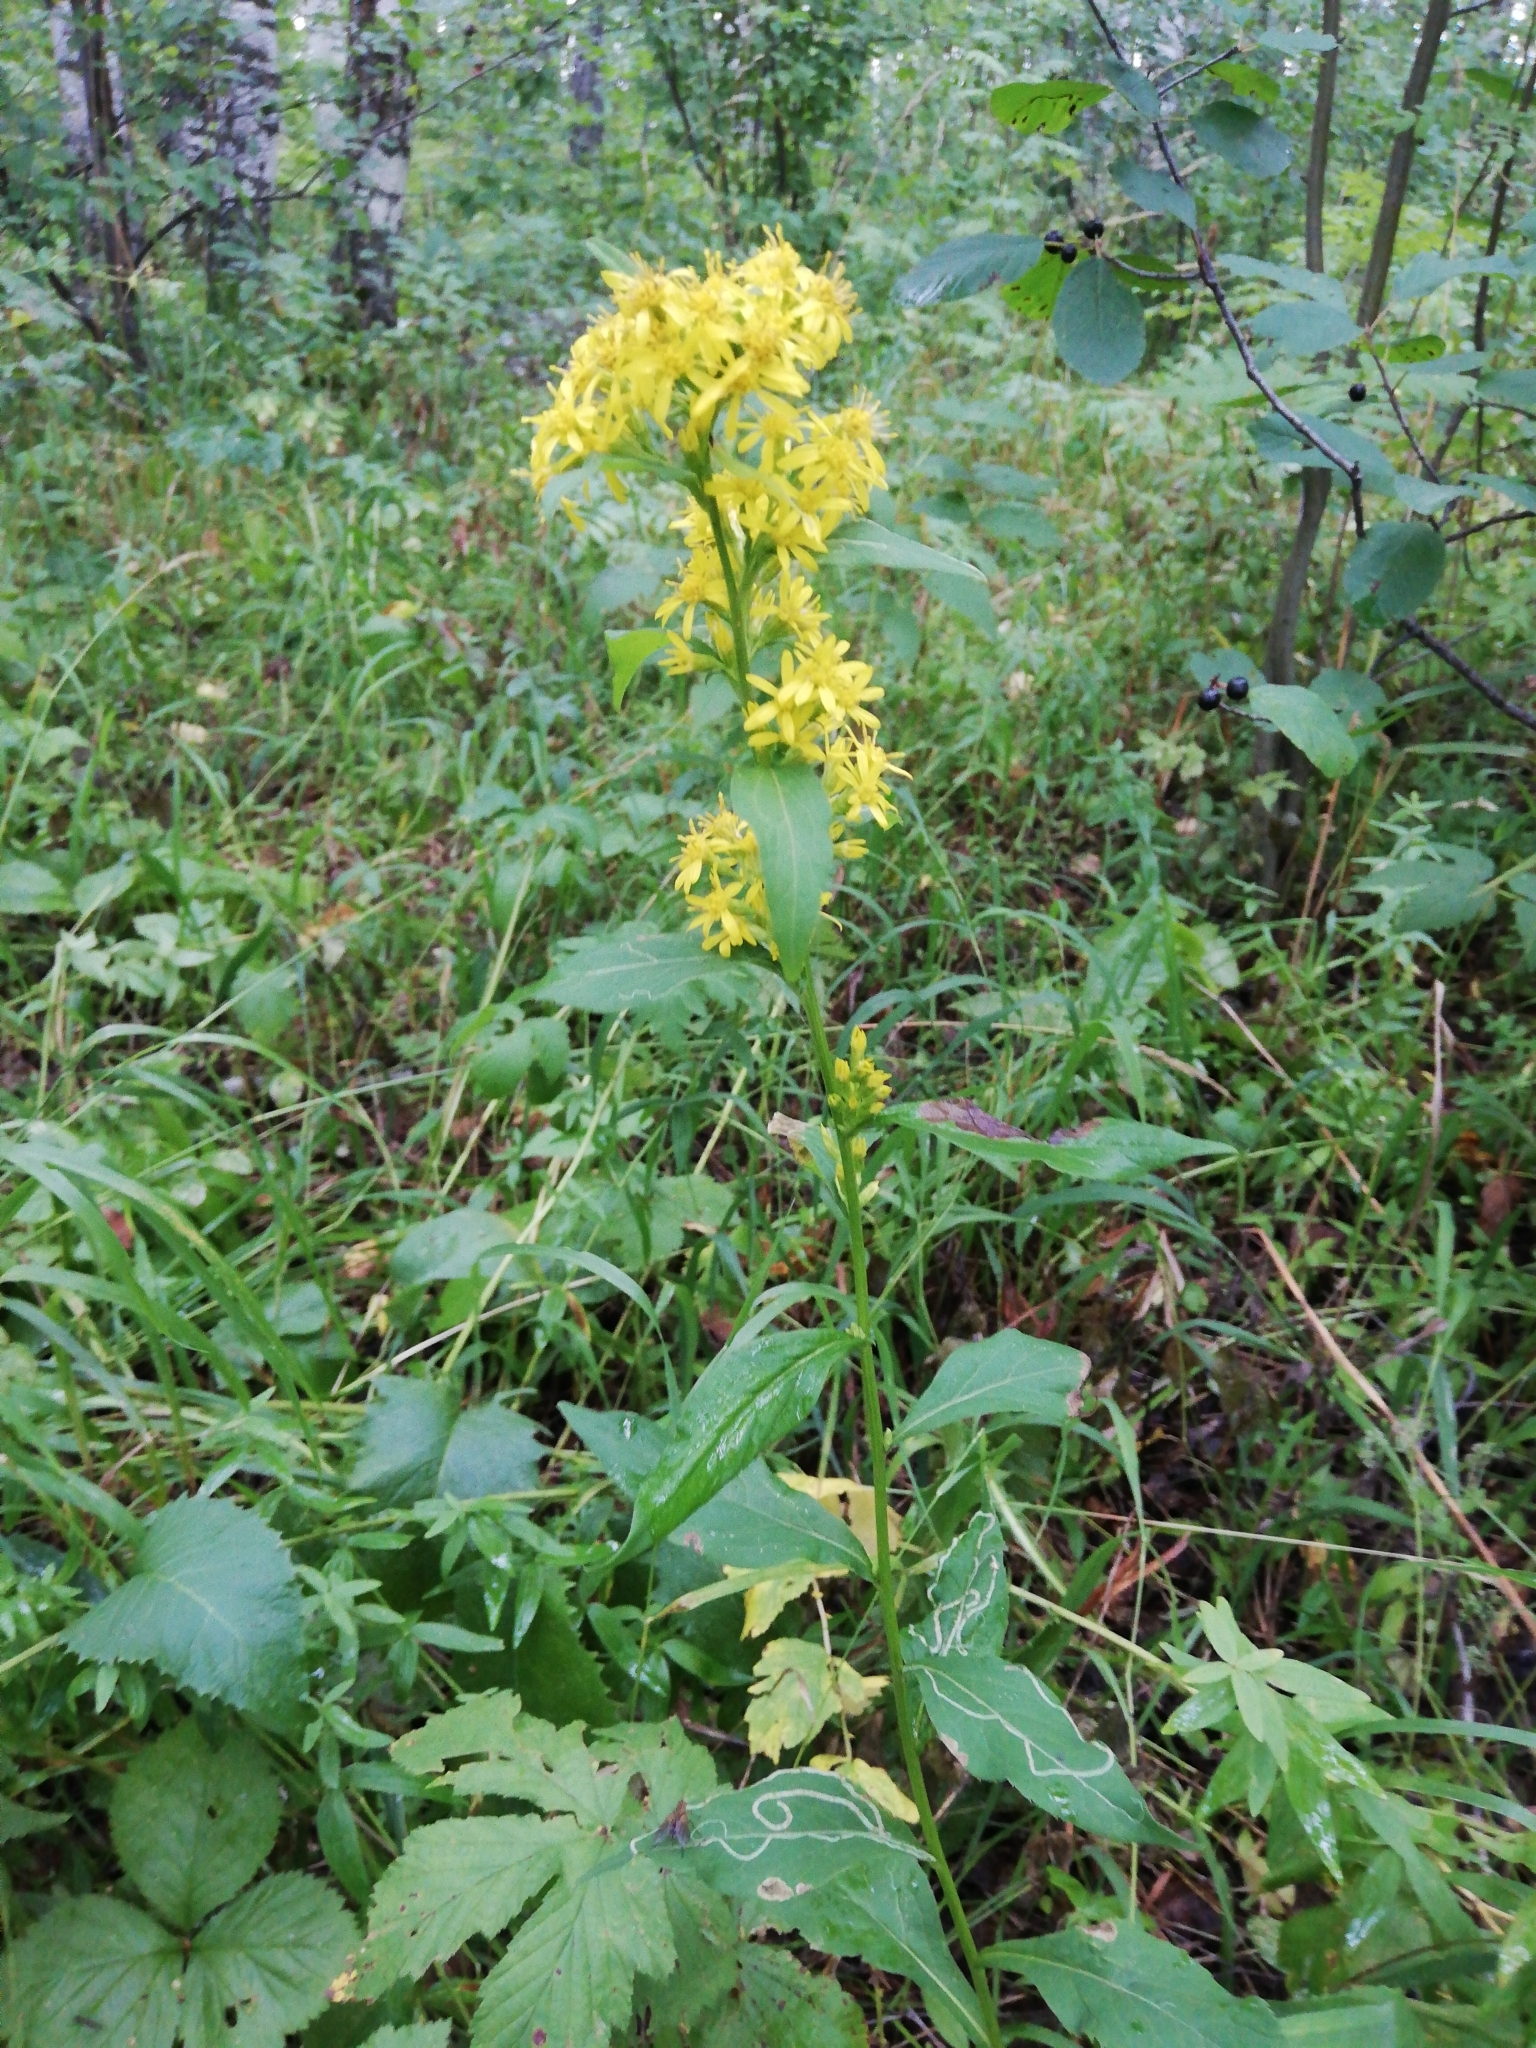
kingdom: Plantae
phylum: Tracheophyta
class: Magnoliopsida
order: Asterales
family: Asteraceae
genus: Solidago
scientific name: Solidago virgaurea
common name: Goldenrod
